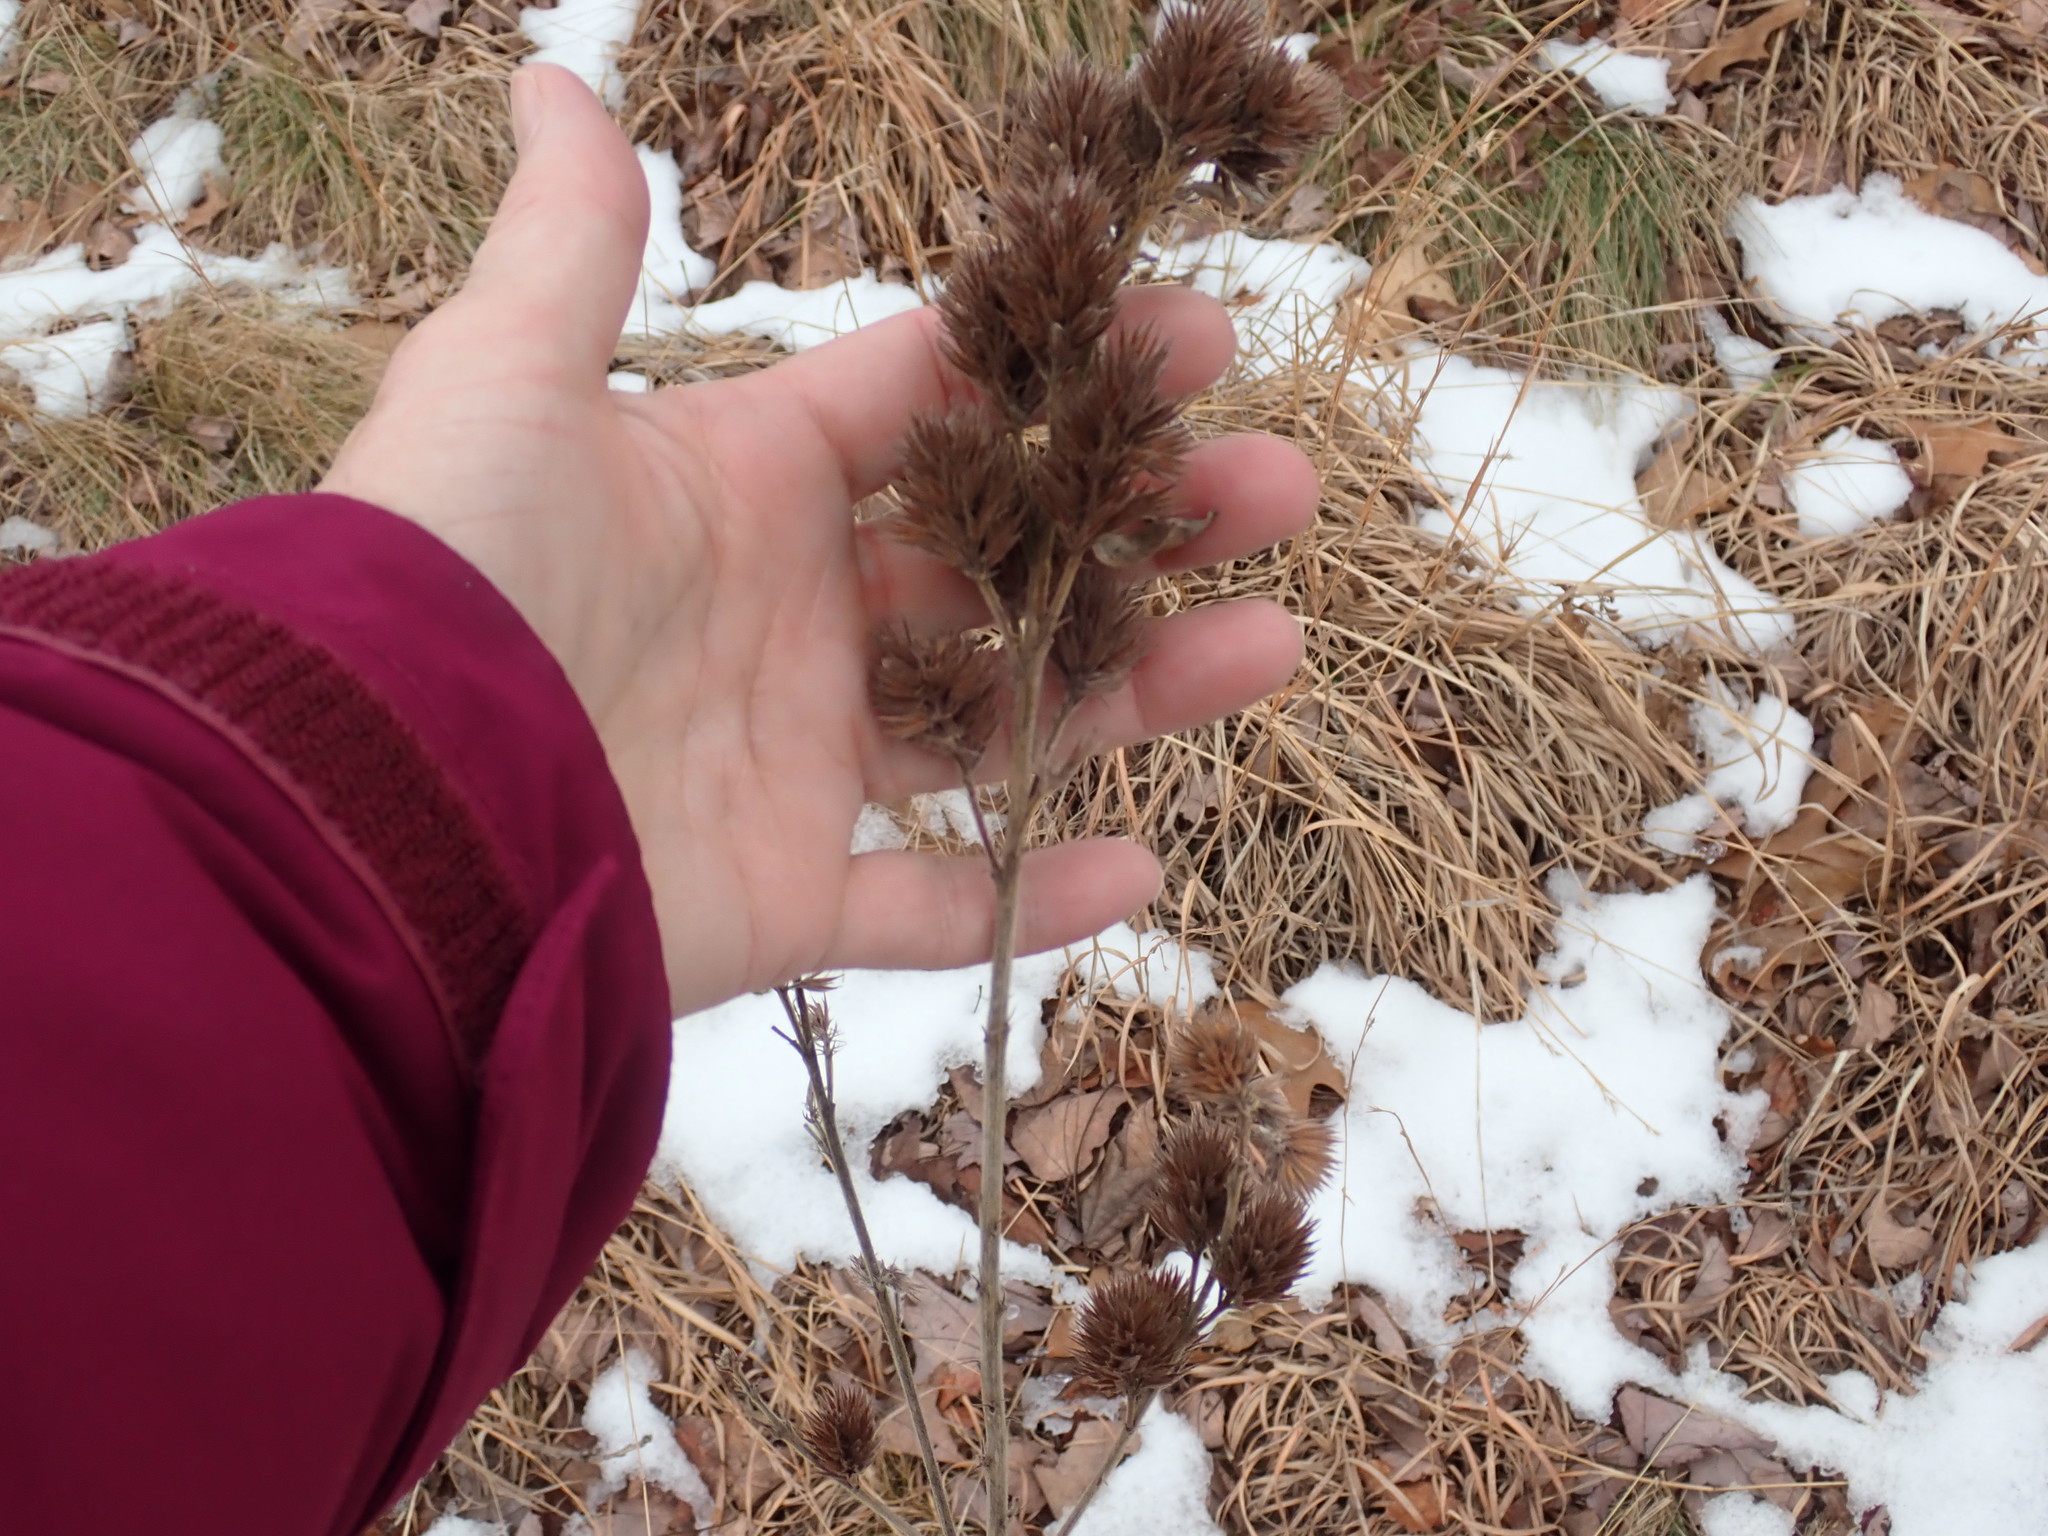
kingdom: Plantae
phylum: Tracheophyta
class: Magnoliopsida
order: Fabales
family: Fabaceae
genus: Lespedeza
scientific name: Lespedeza capitata
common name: Dusty clover
